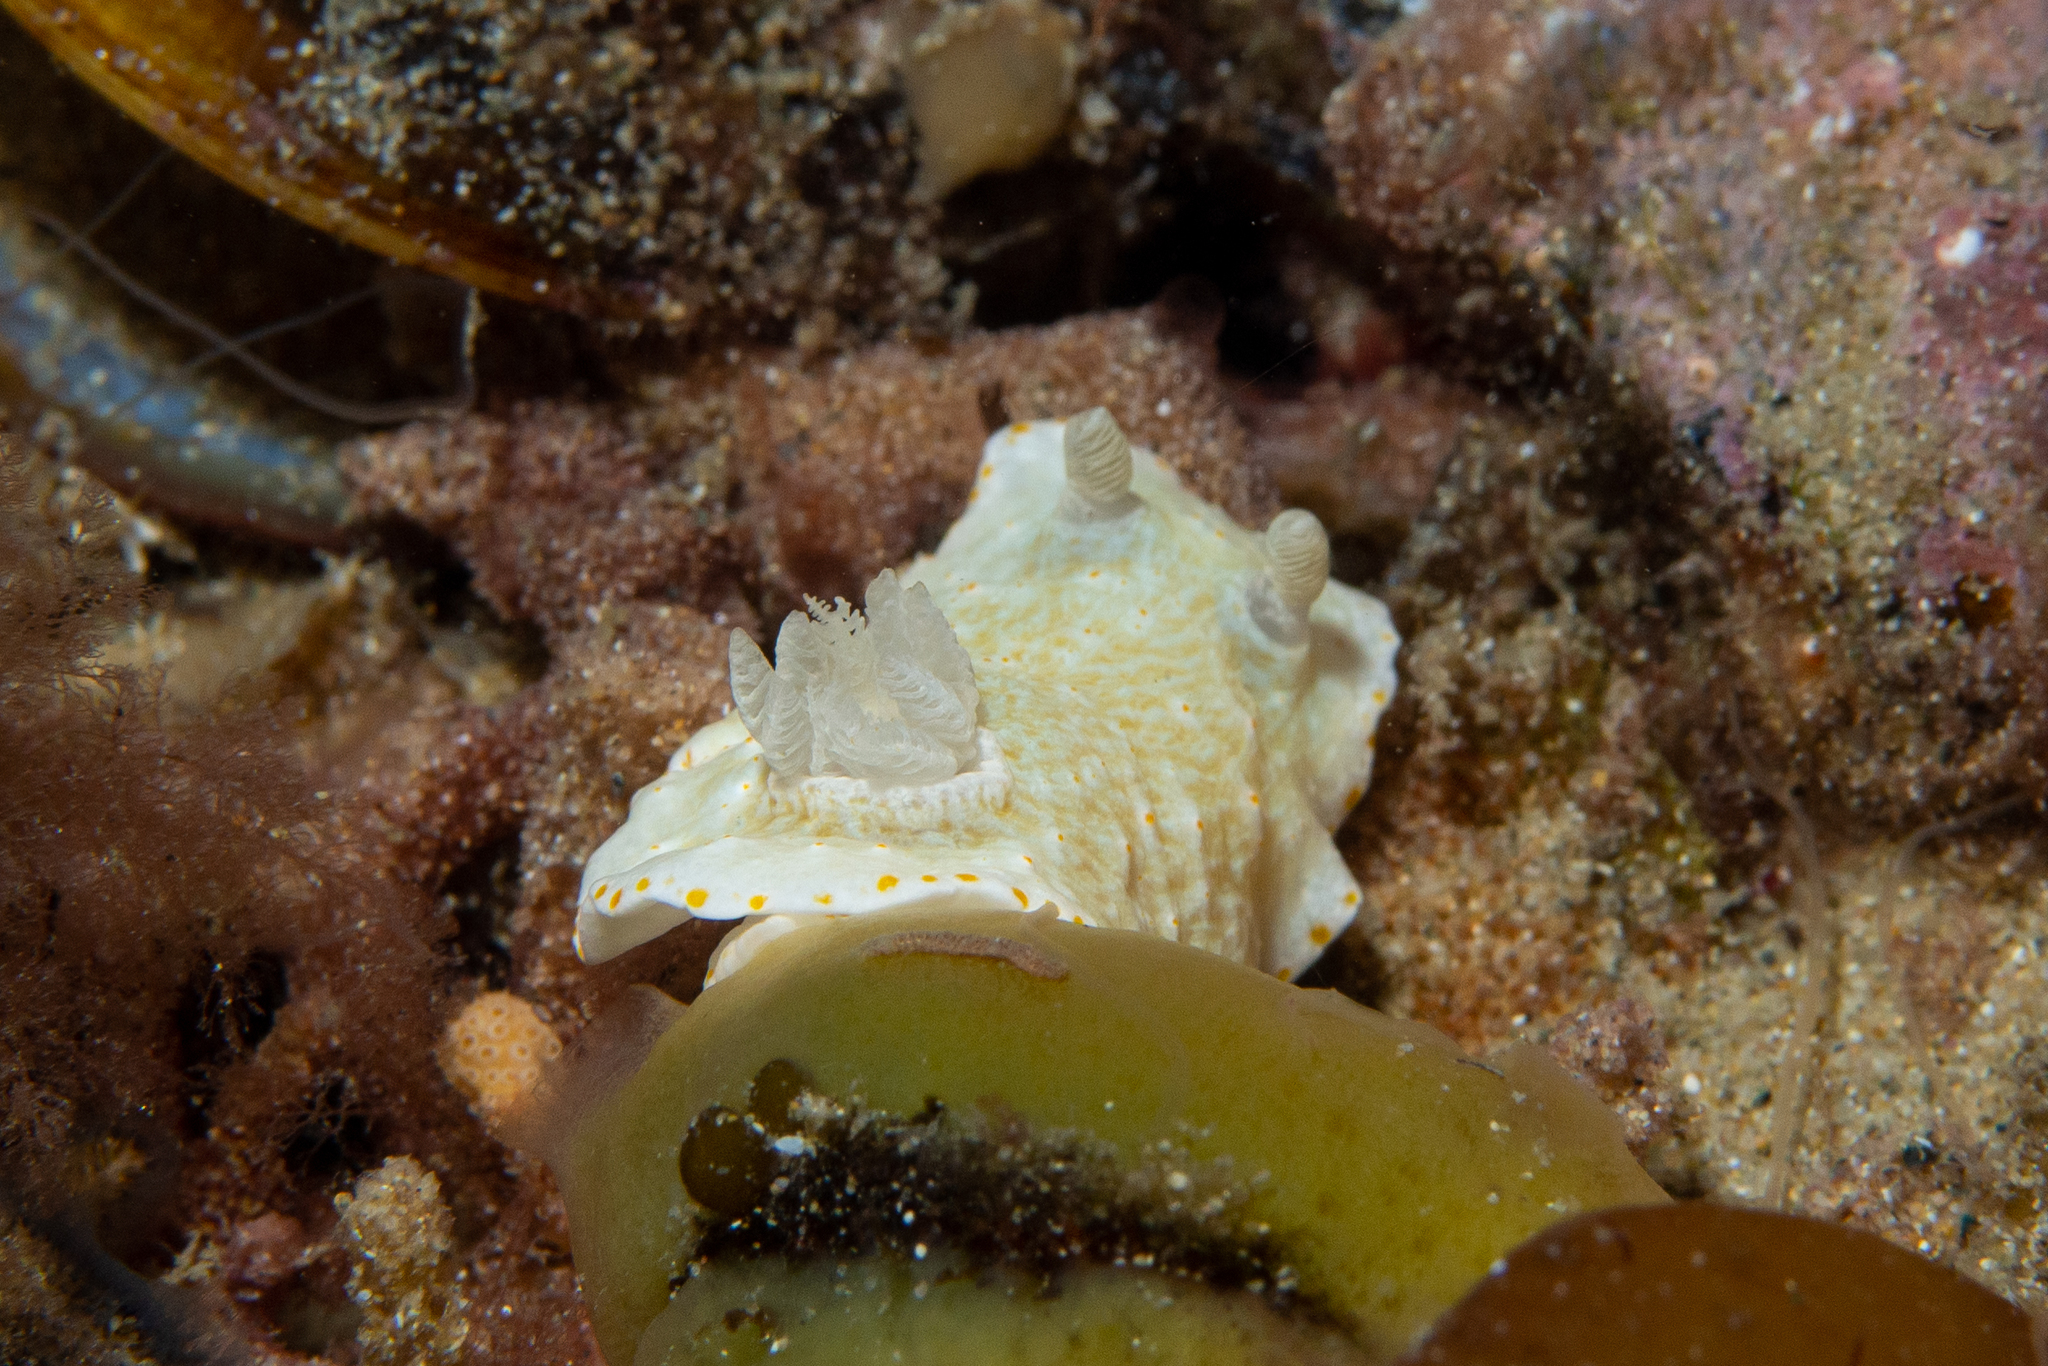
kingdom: Animalia
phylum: Mollusca
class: Gastropoda
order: Nudibranchia
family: Chromodorididae
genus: Goniobranchus
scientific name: Goniobranchus epicurius
